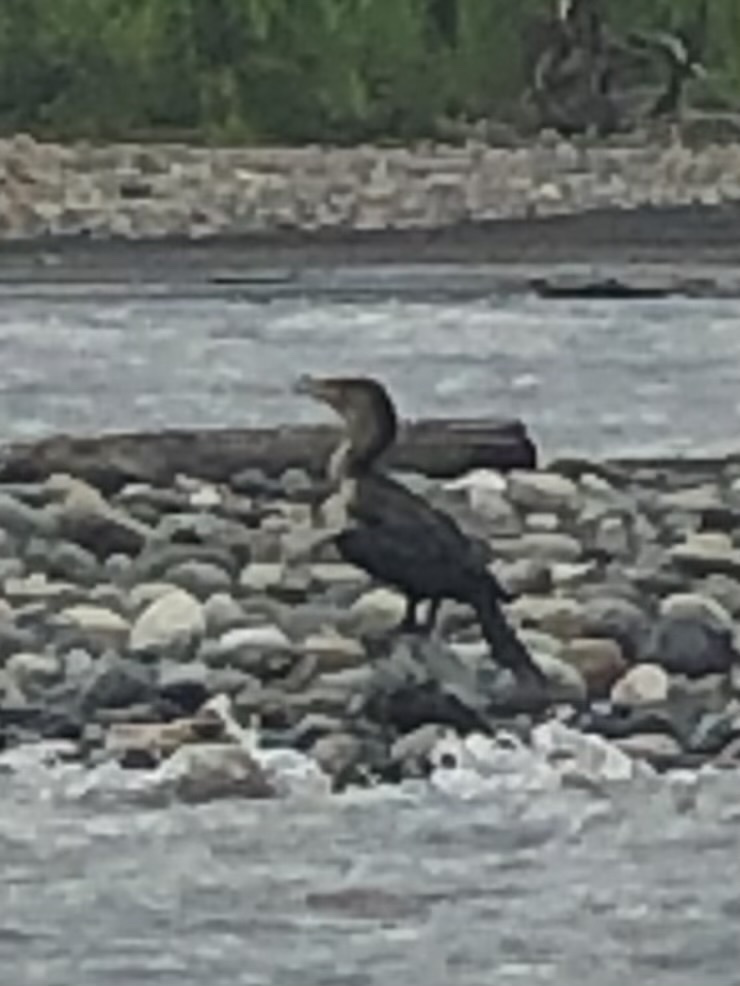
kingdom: Animalia
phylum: Chordata
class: Aves
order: Suliformes
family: Phalacrocoracidae
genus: Phalacrocorax
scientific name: Phalacrocorax brasilianus
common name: Neotropic cormorant
